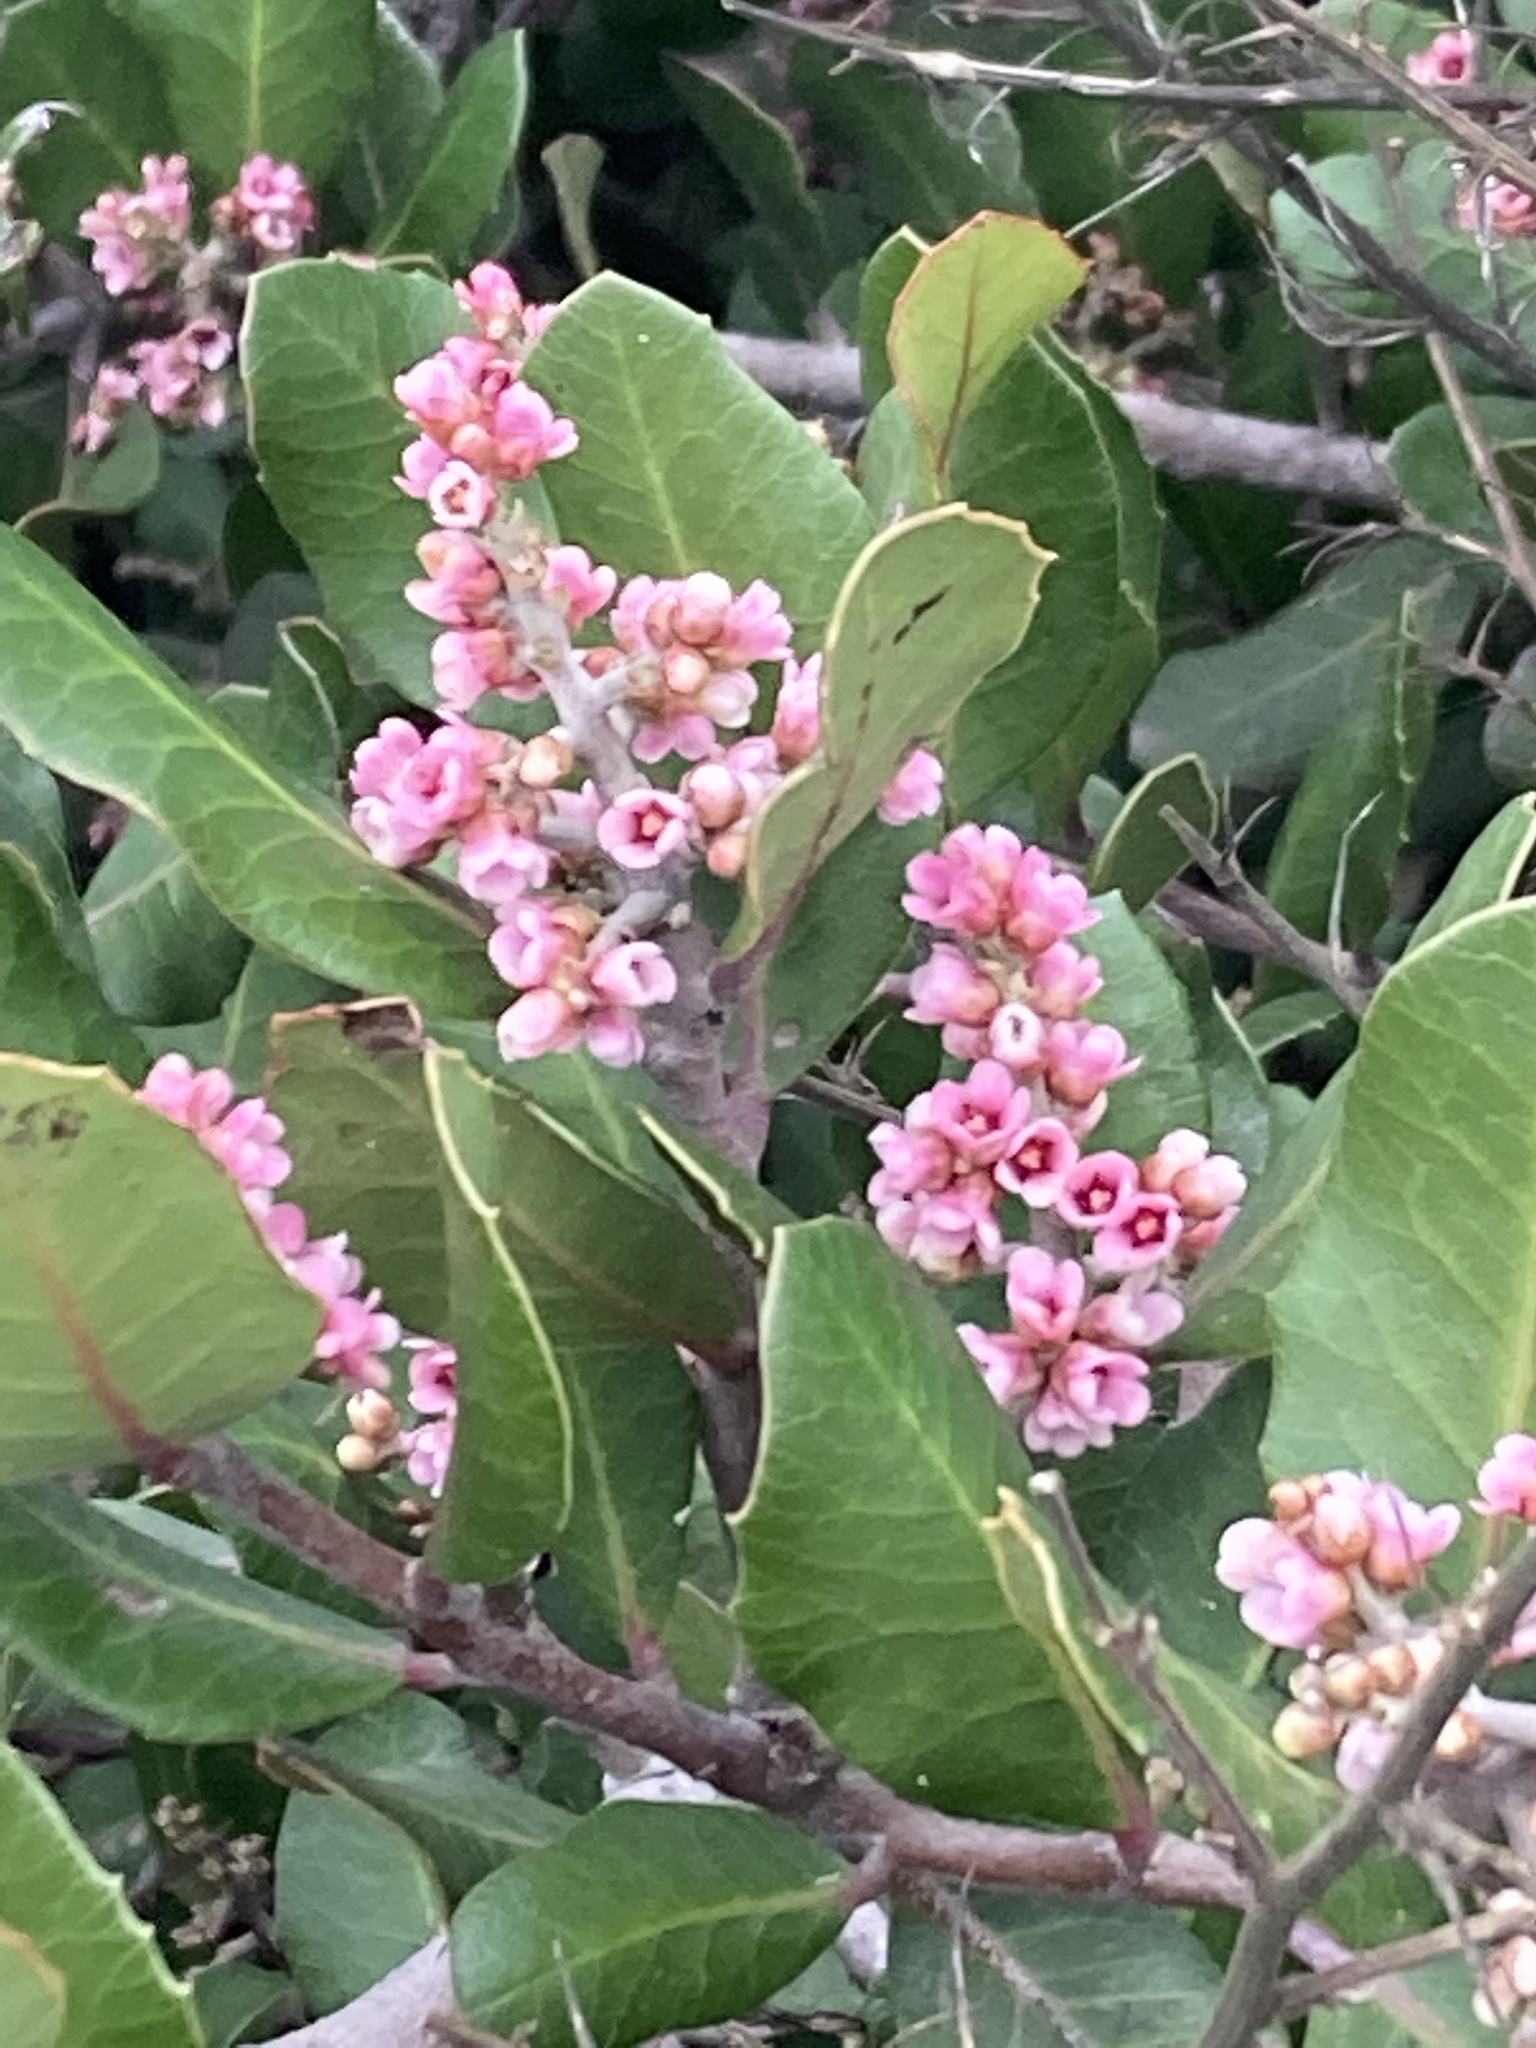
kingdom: Plantae
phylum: Tracheophyta
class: Magnoliopsida
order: Sapindales
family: Anacardiaceae
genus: Rhus
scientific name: Rhus integrifolia
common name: Lemonade sumac
